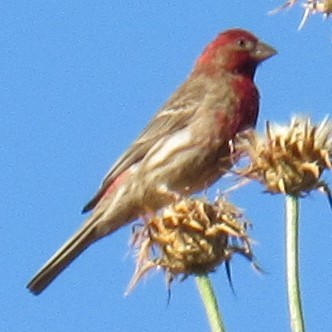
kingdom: Animalia
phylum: Chordata
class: Aves
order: Passeriformes
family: Fringillidae
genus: Haemorhous
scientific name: Haemorhous mexicanus
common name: House finch
